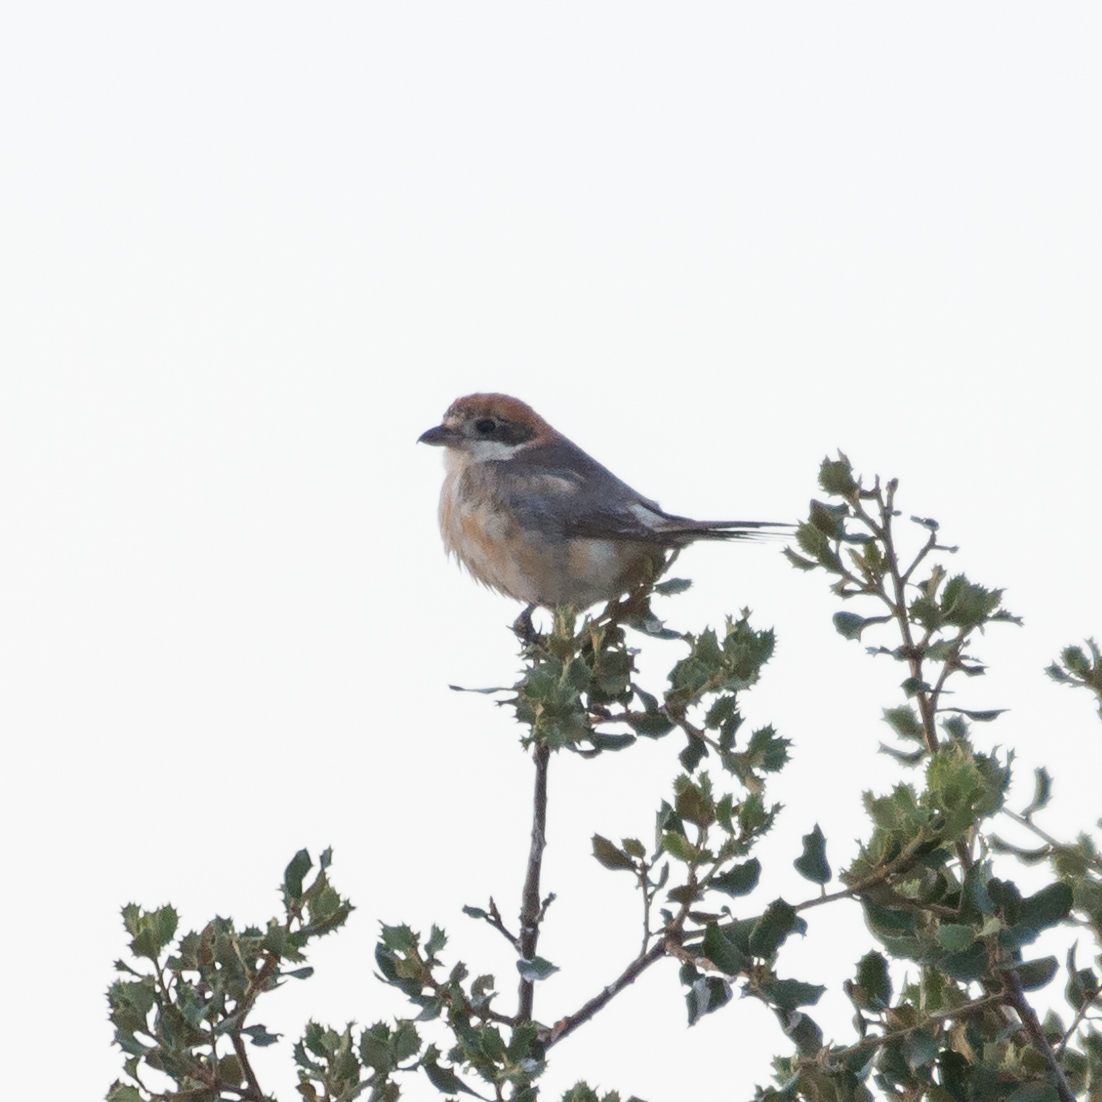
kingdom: Animalia
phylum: Chordata
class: Aves
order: Passeriformes
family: Laniidae
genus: Lanius
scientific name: Lanius senator
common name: Woodchat shrike
